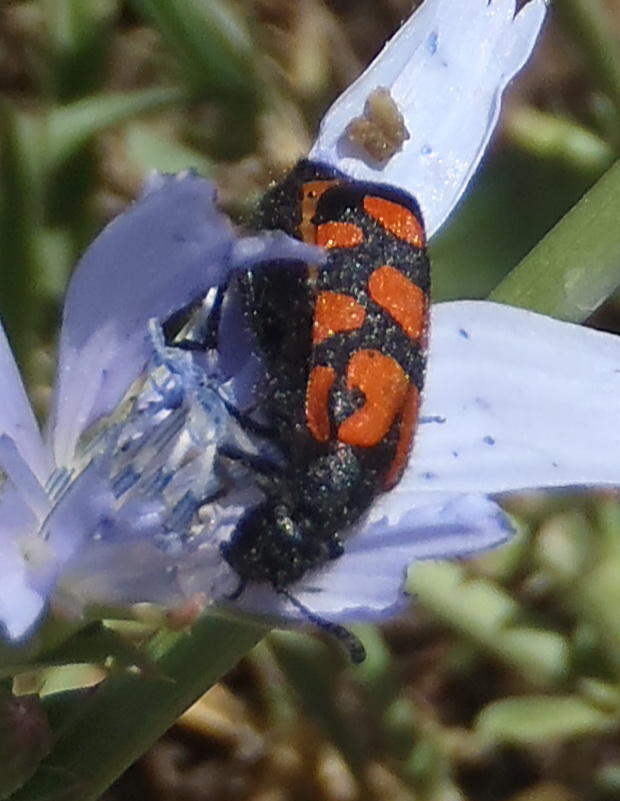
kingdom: Animalia
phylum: Arthropoda
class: Insecta
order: Coleoptera
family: Meloidae
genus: Ceroctis
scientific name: Ceroctis capensis
